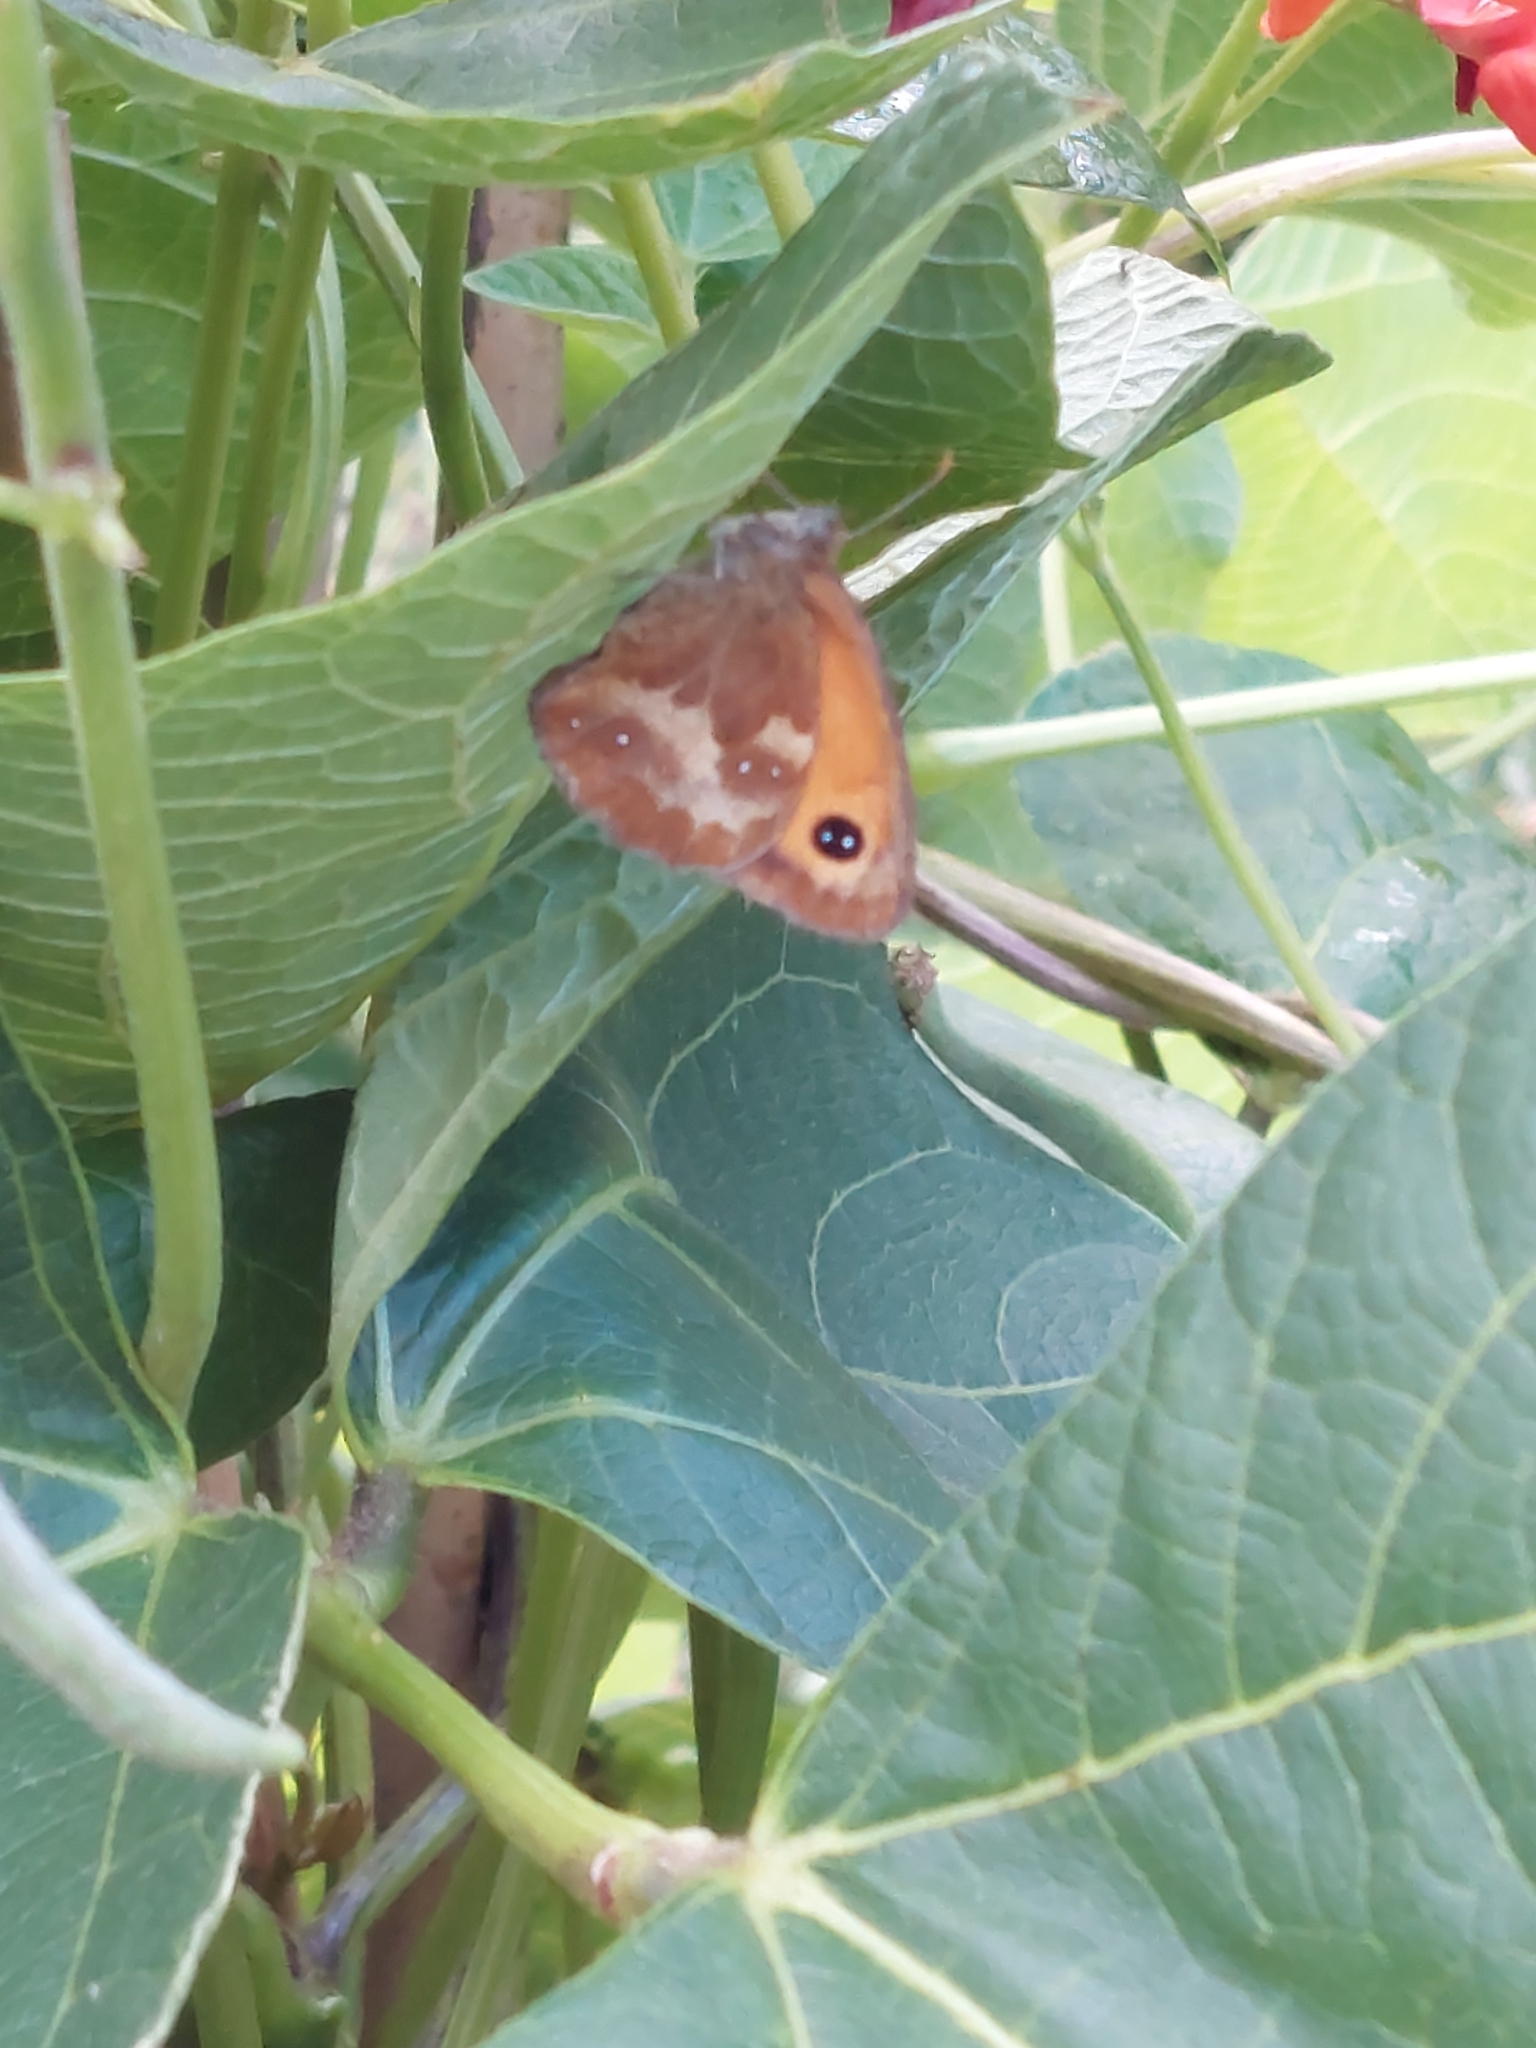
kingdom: Animalia
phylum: Arthropoda
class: Insecta
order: Lepidoptera
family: Nymphalidae
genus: Pyronia
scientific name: Pyronia tithonus
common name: Gatekeeper
